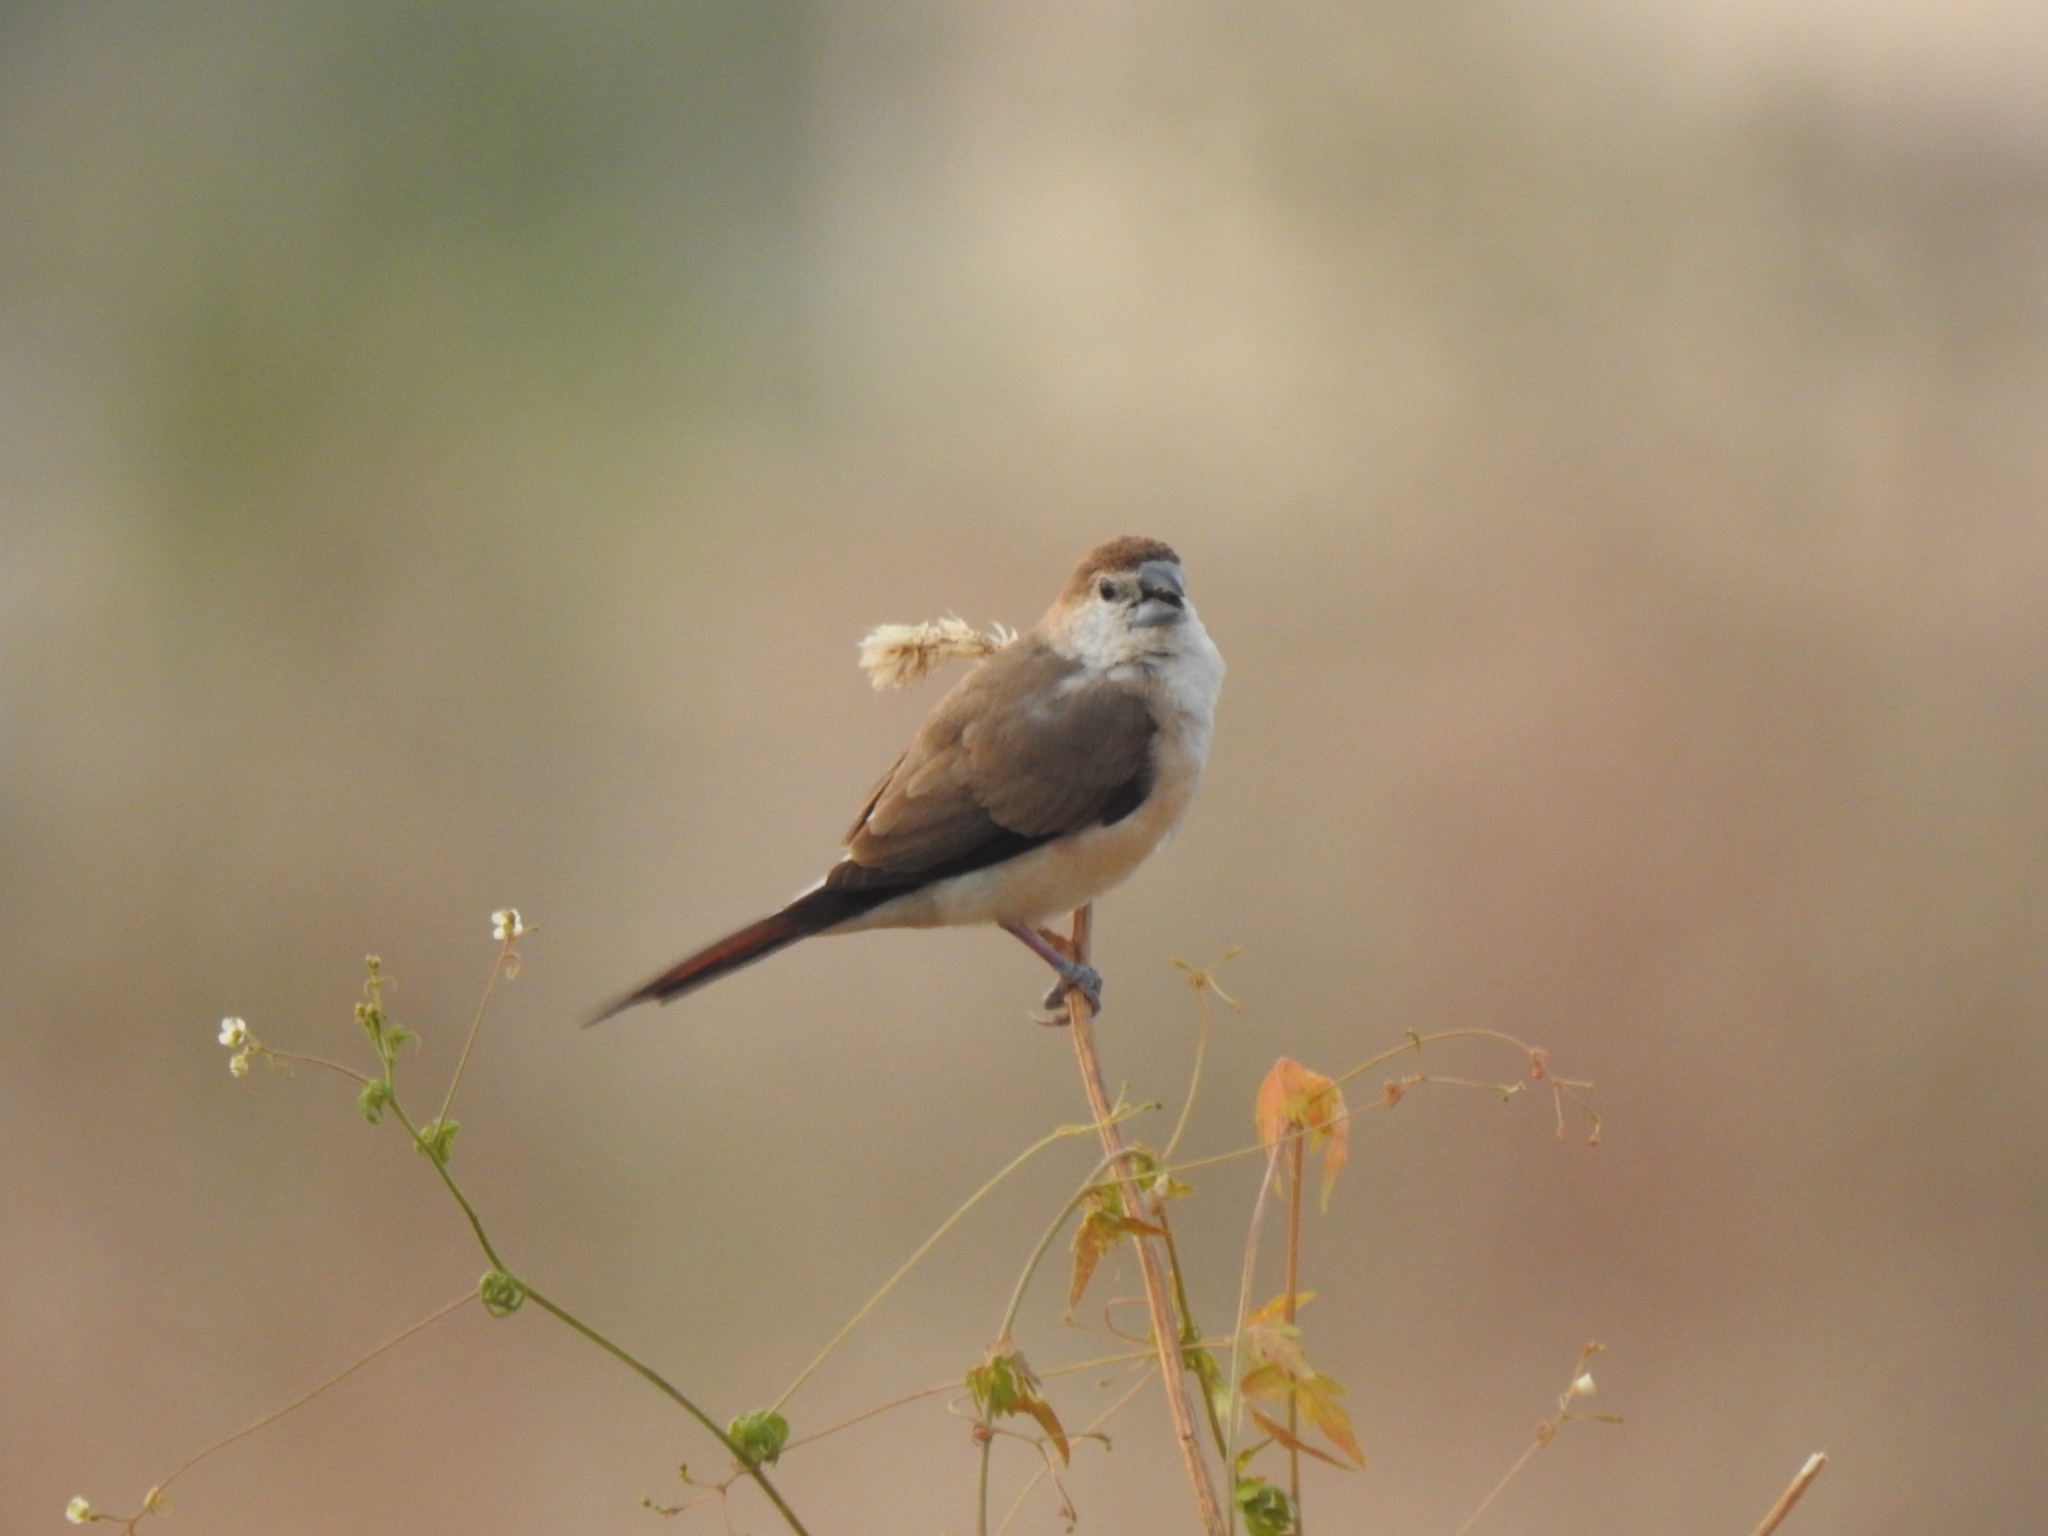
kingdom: Animalia
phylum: Chordata
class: Aves
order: Passeriformes
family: Estrildidae
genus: Euodice
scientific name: Euodice malabarica
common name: Indian silverbill
